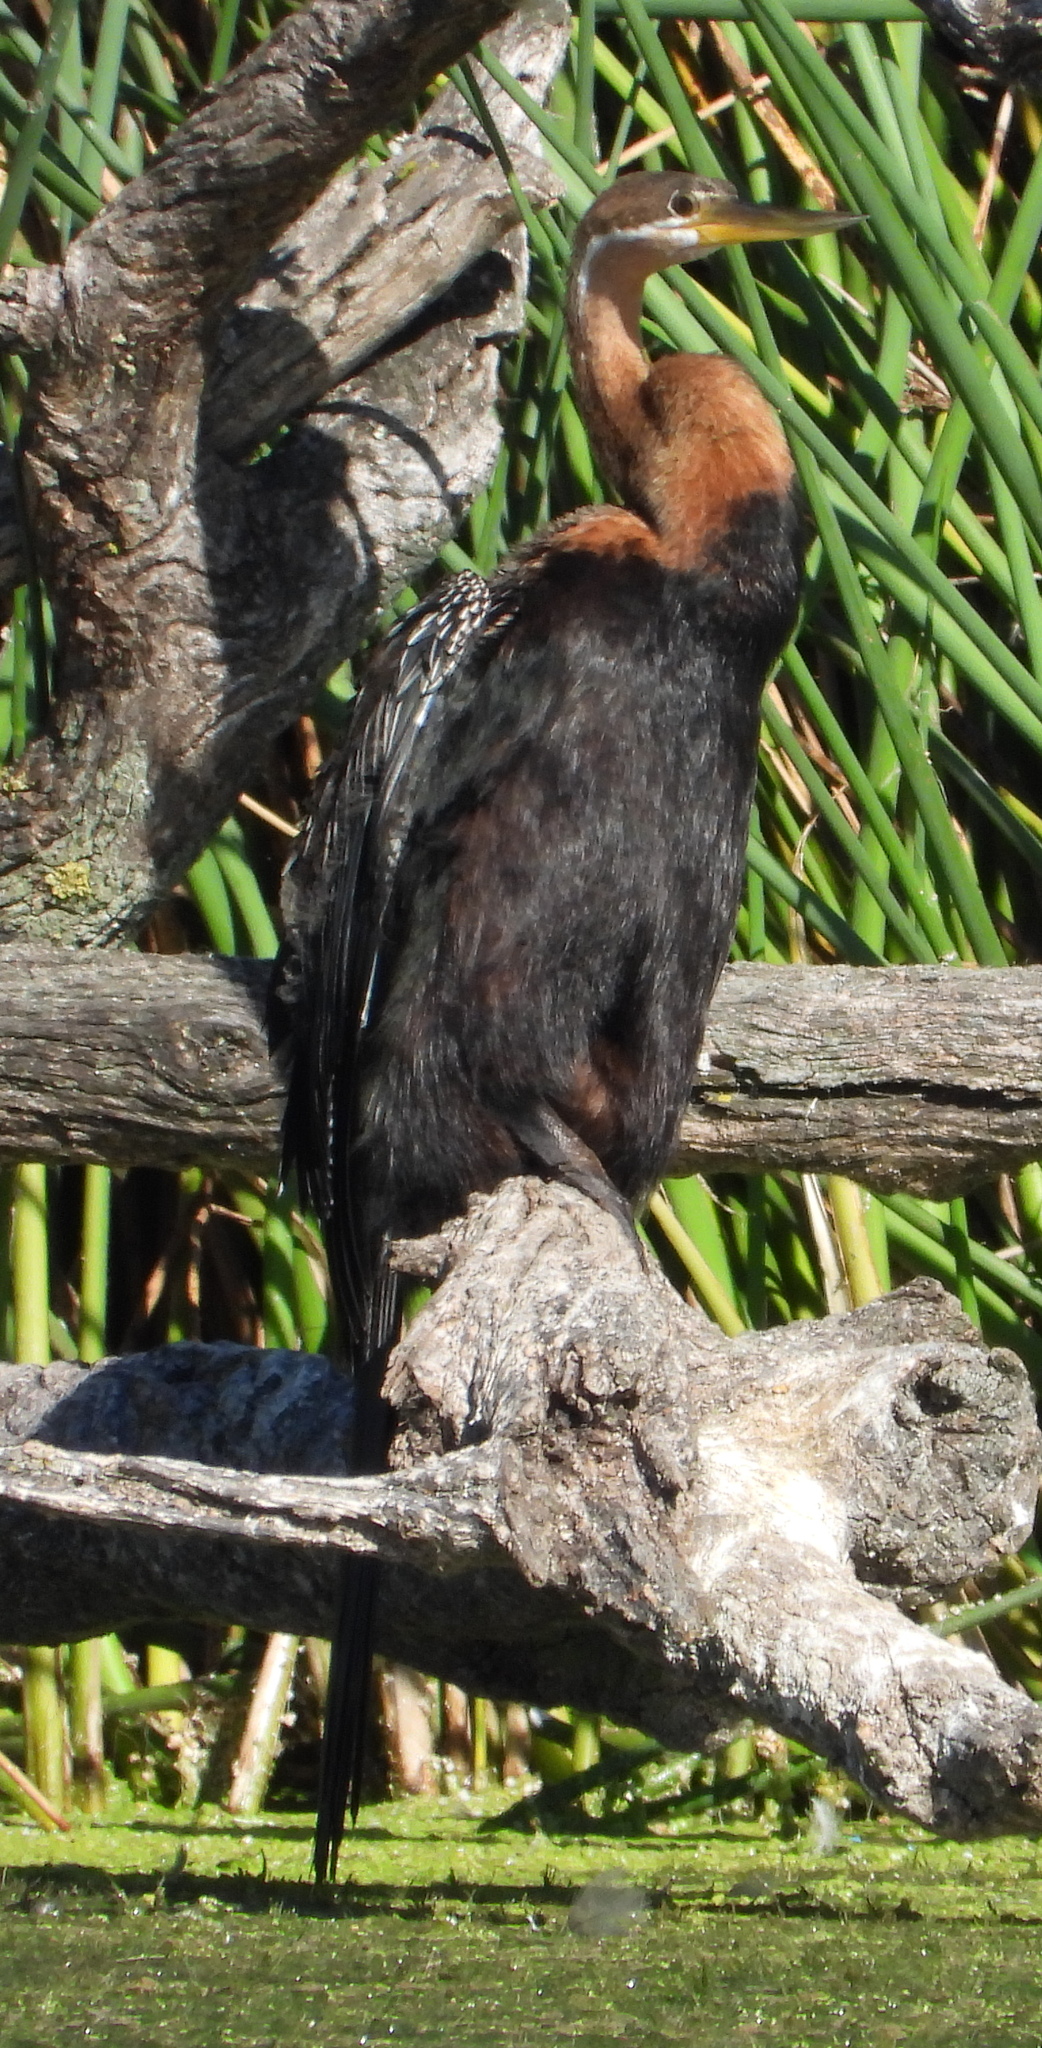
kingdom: Animalia
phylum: Chordata
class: Aves
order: Suliformes
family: Anhingidae
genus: Anhinga
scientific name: Anhinga rufa
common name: African darter
